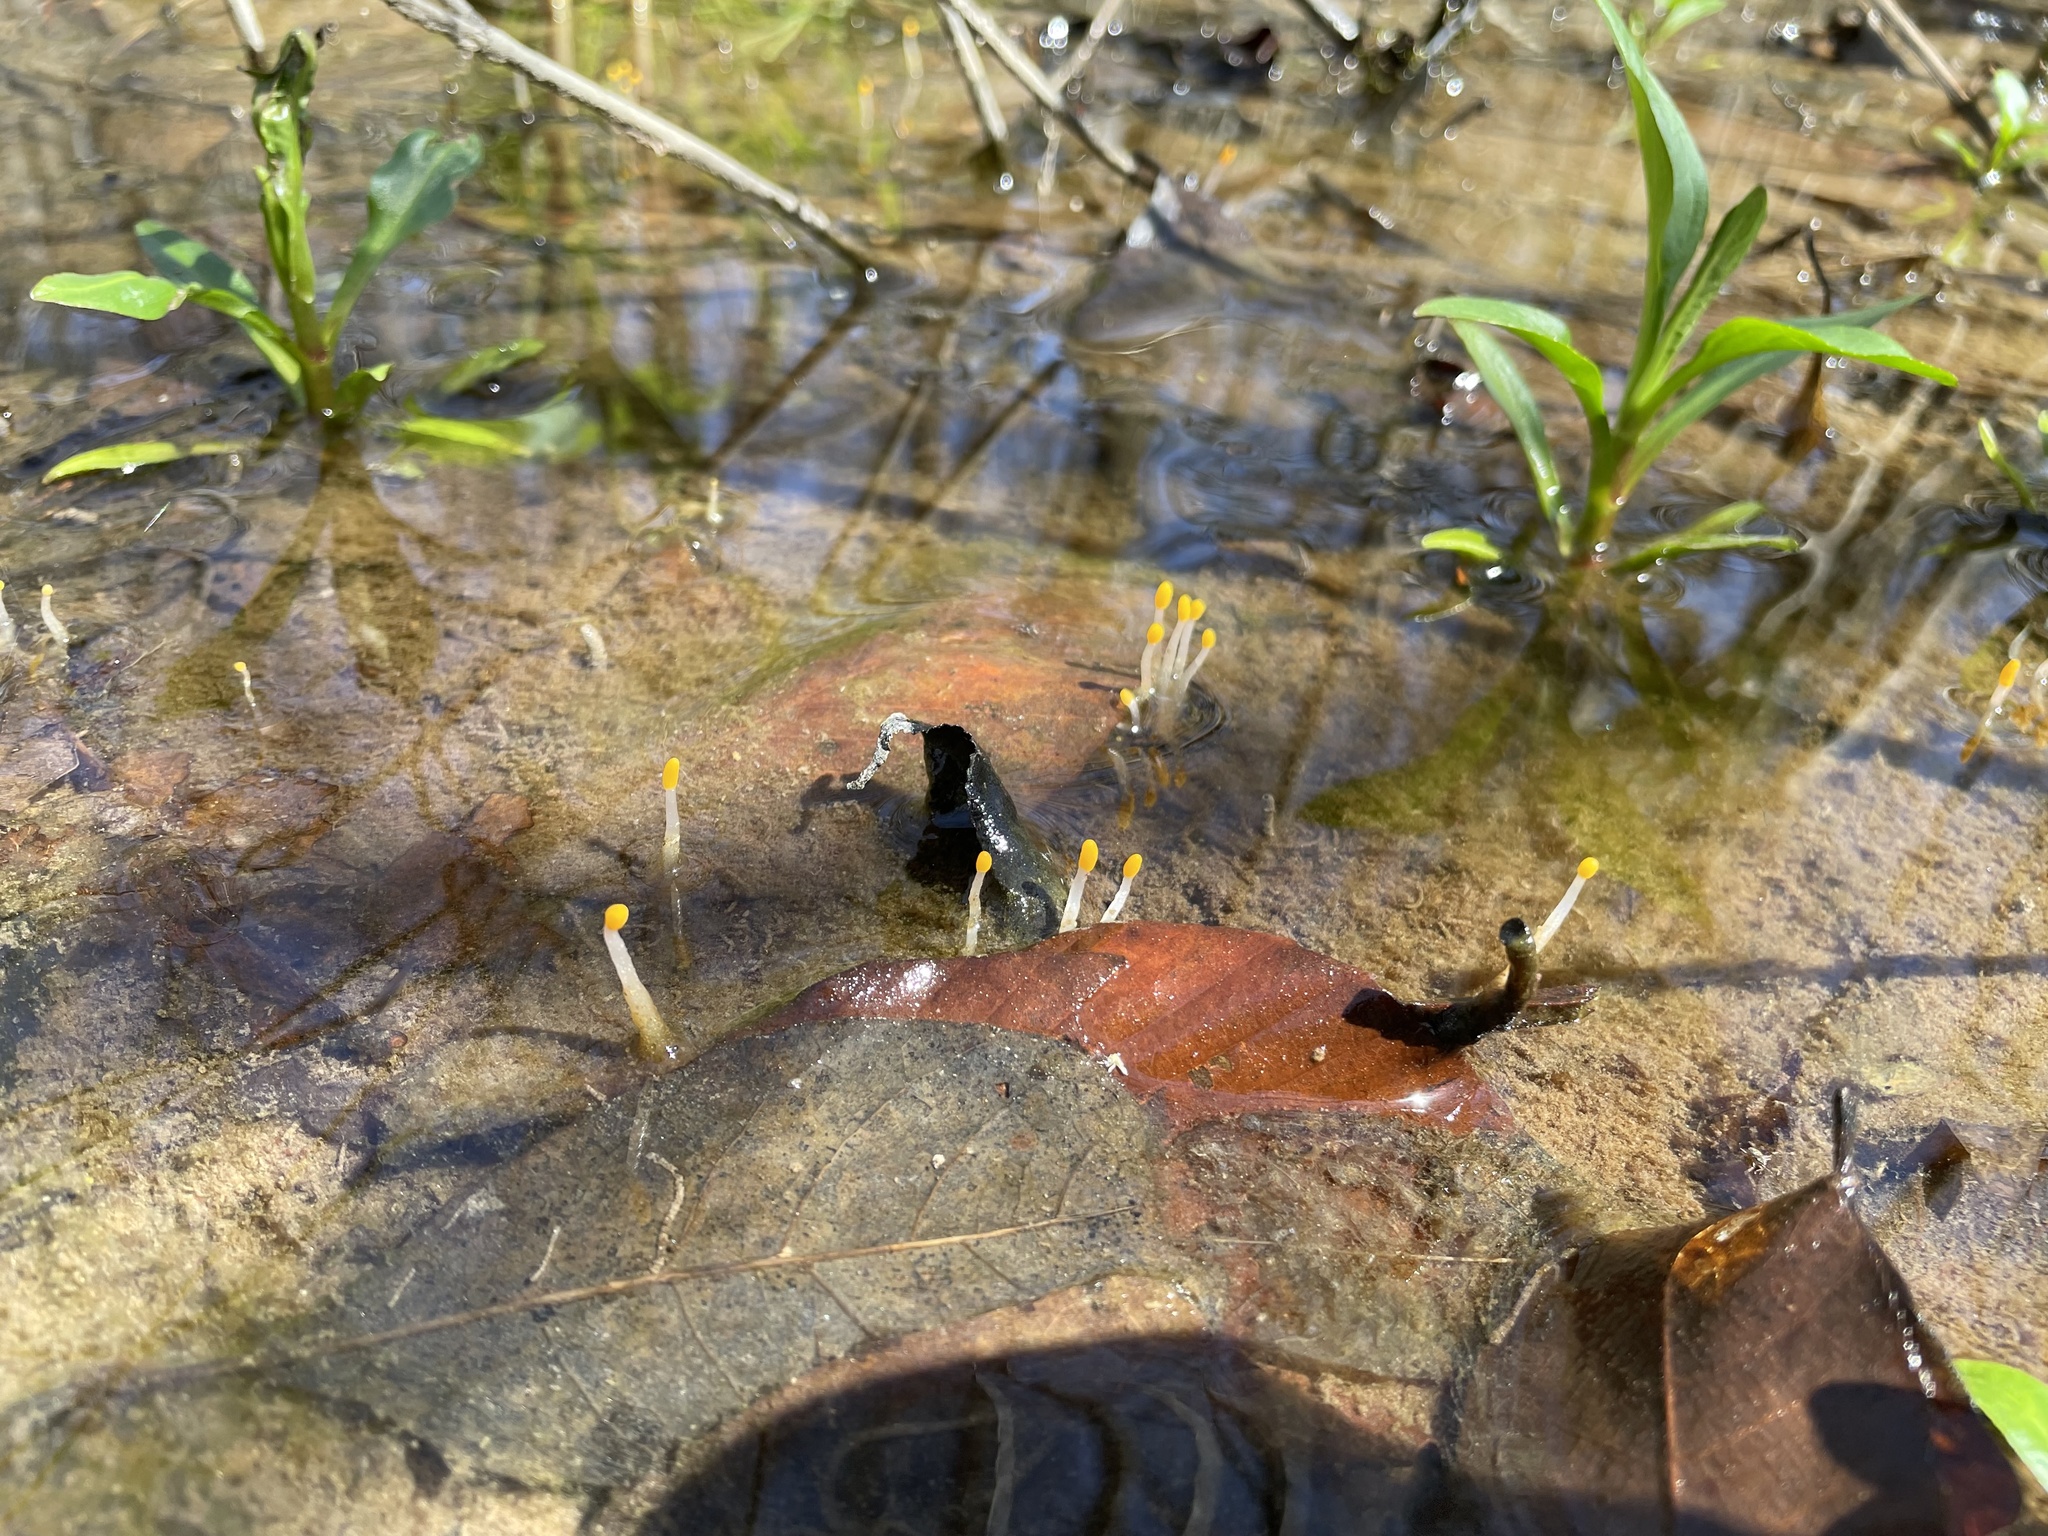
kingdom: Fungi
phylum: Ascomycota
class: Leotiomycetes
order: Helotiales
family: Sclerotiniaceae
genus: Mitrula
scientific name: Mitrula elegans
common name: Swamp beacon
